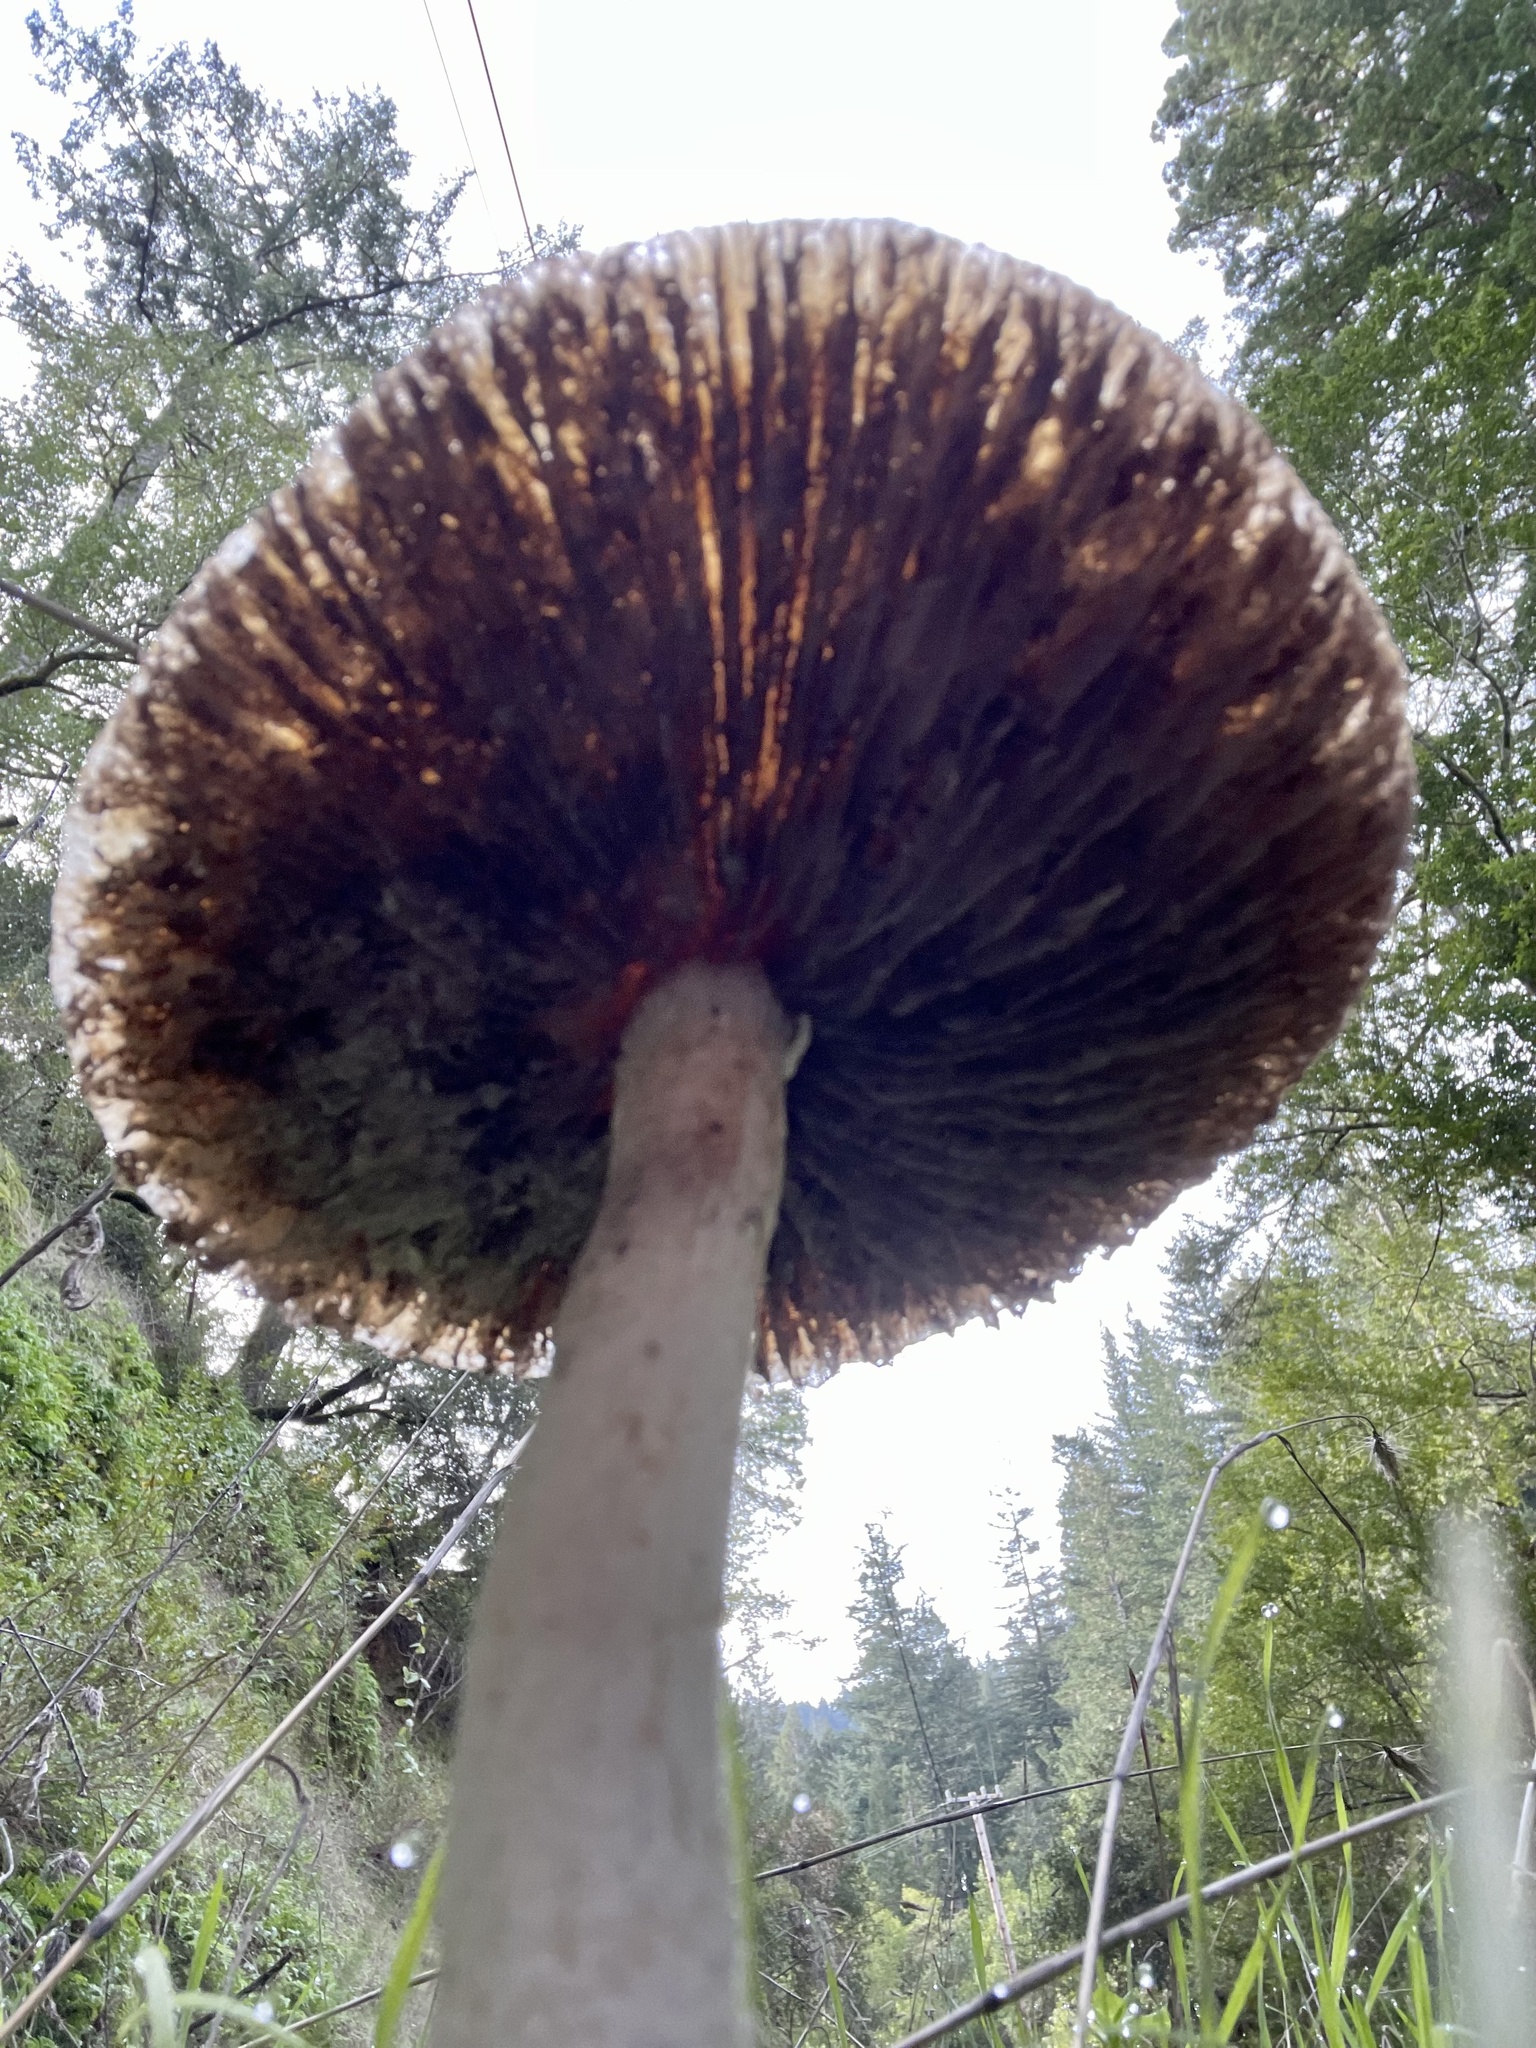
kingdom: Fungi
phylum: Basidiomycota
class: Agaricomycetes
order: Agaricales
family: Strophariaceae
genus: Stropharia
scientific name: Stropharia ambigua
